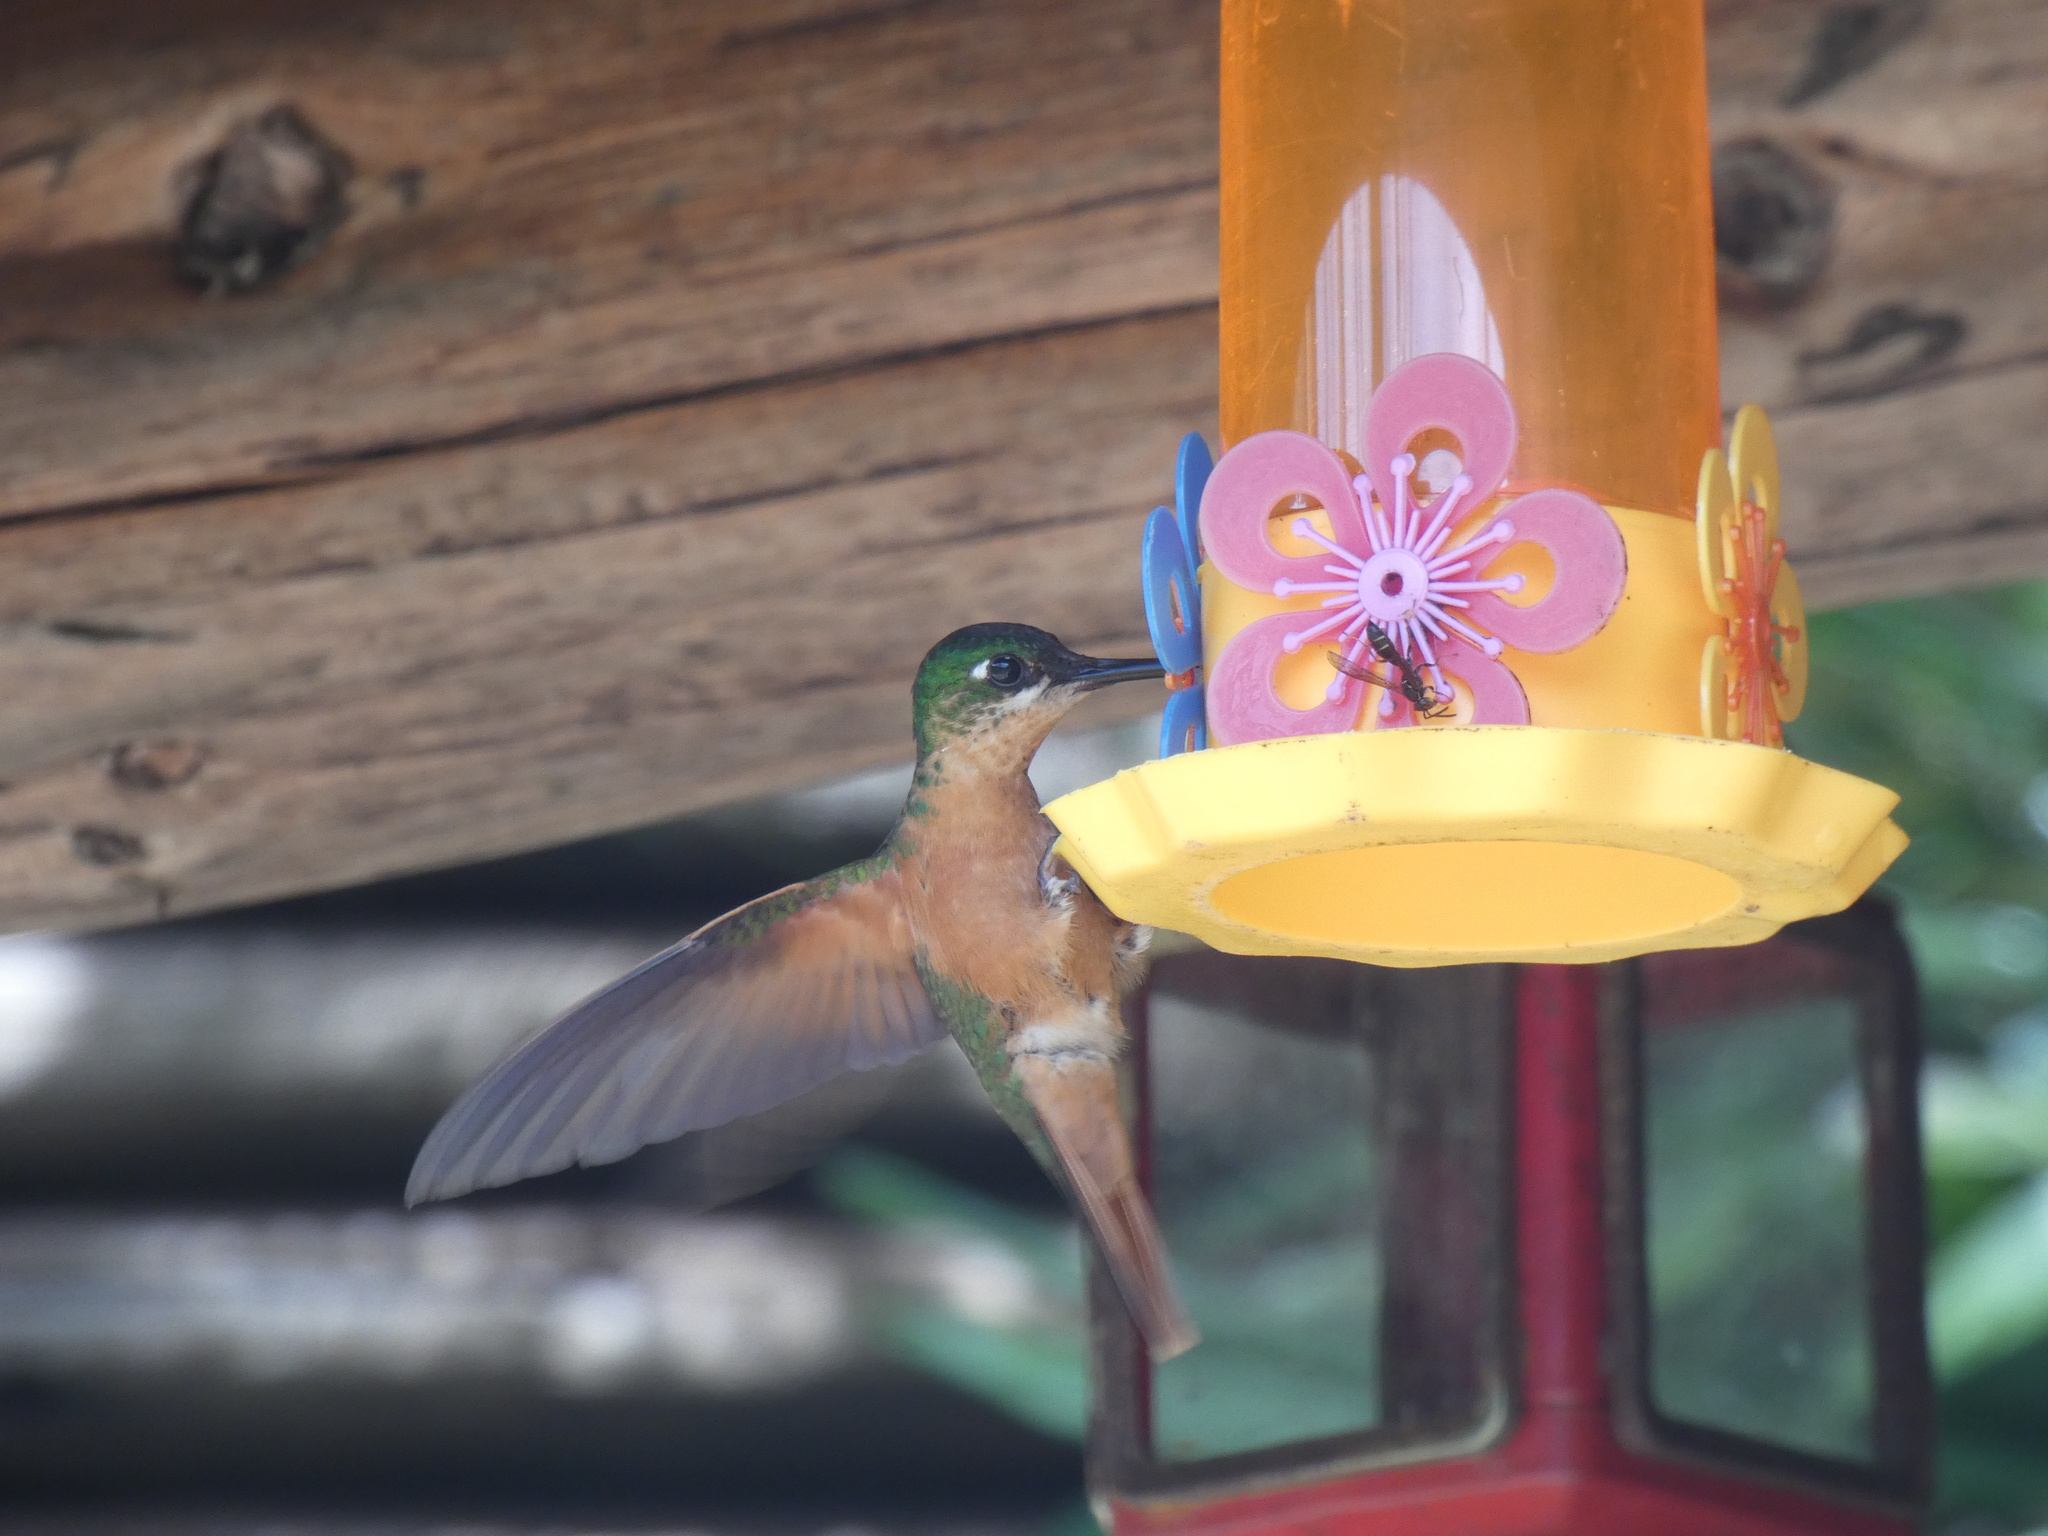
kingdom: Animalia
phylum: Chordata
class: Aves
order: Apodiformes
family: Trochilidae
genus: Clytolaema
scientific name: Clytolaema rubricauda
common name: Brazilian ruby
